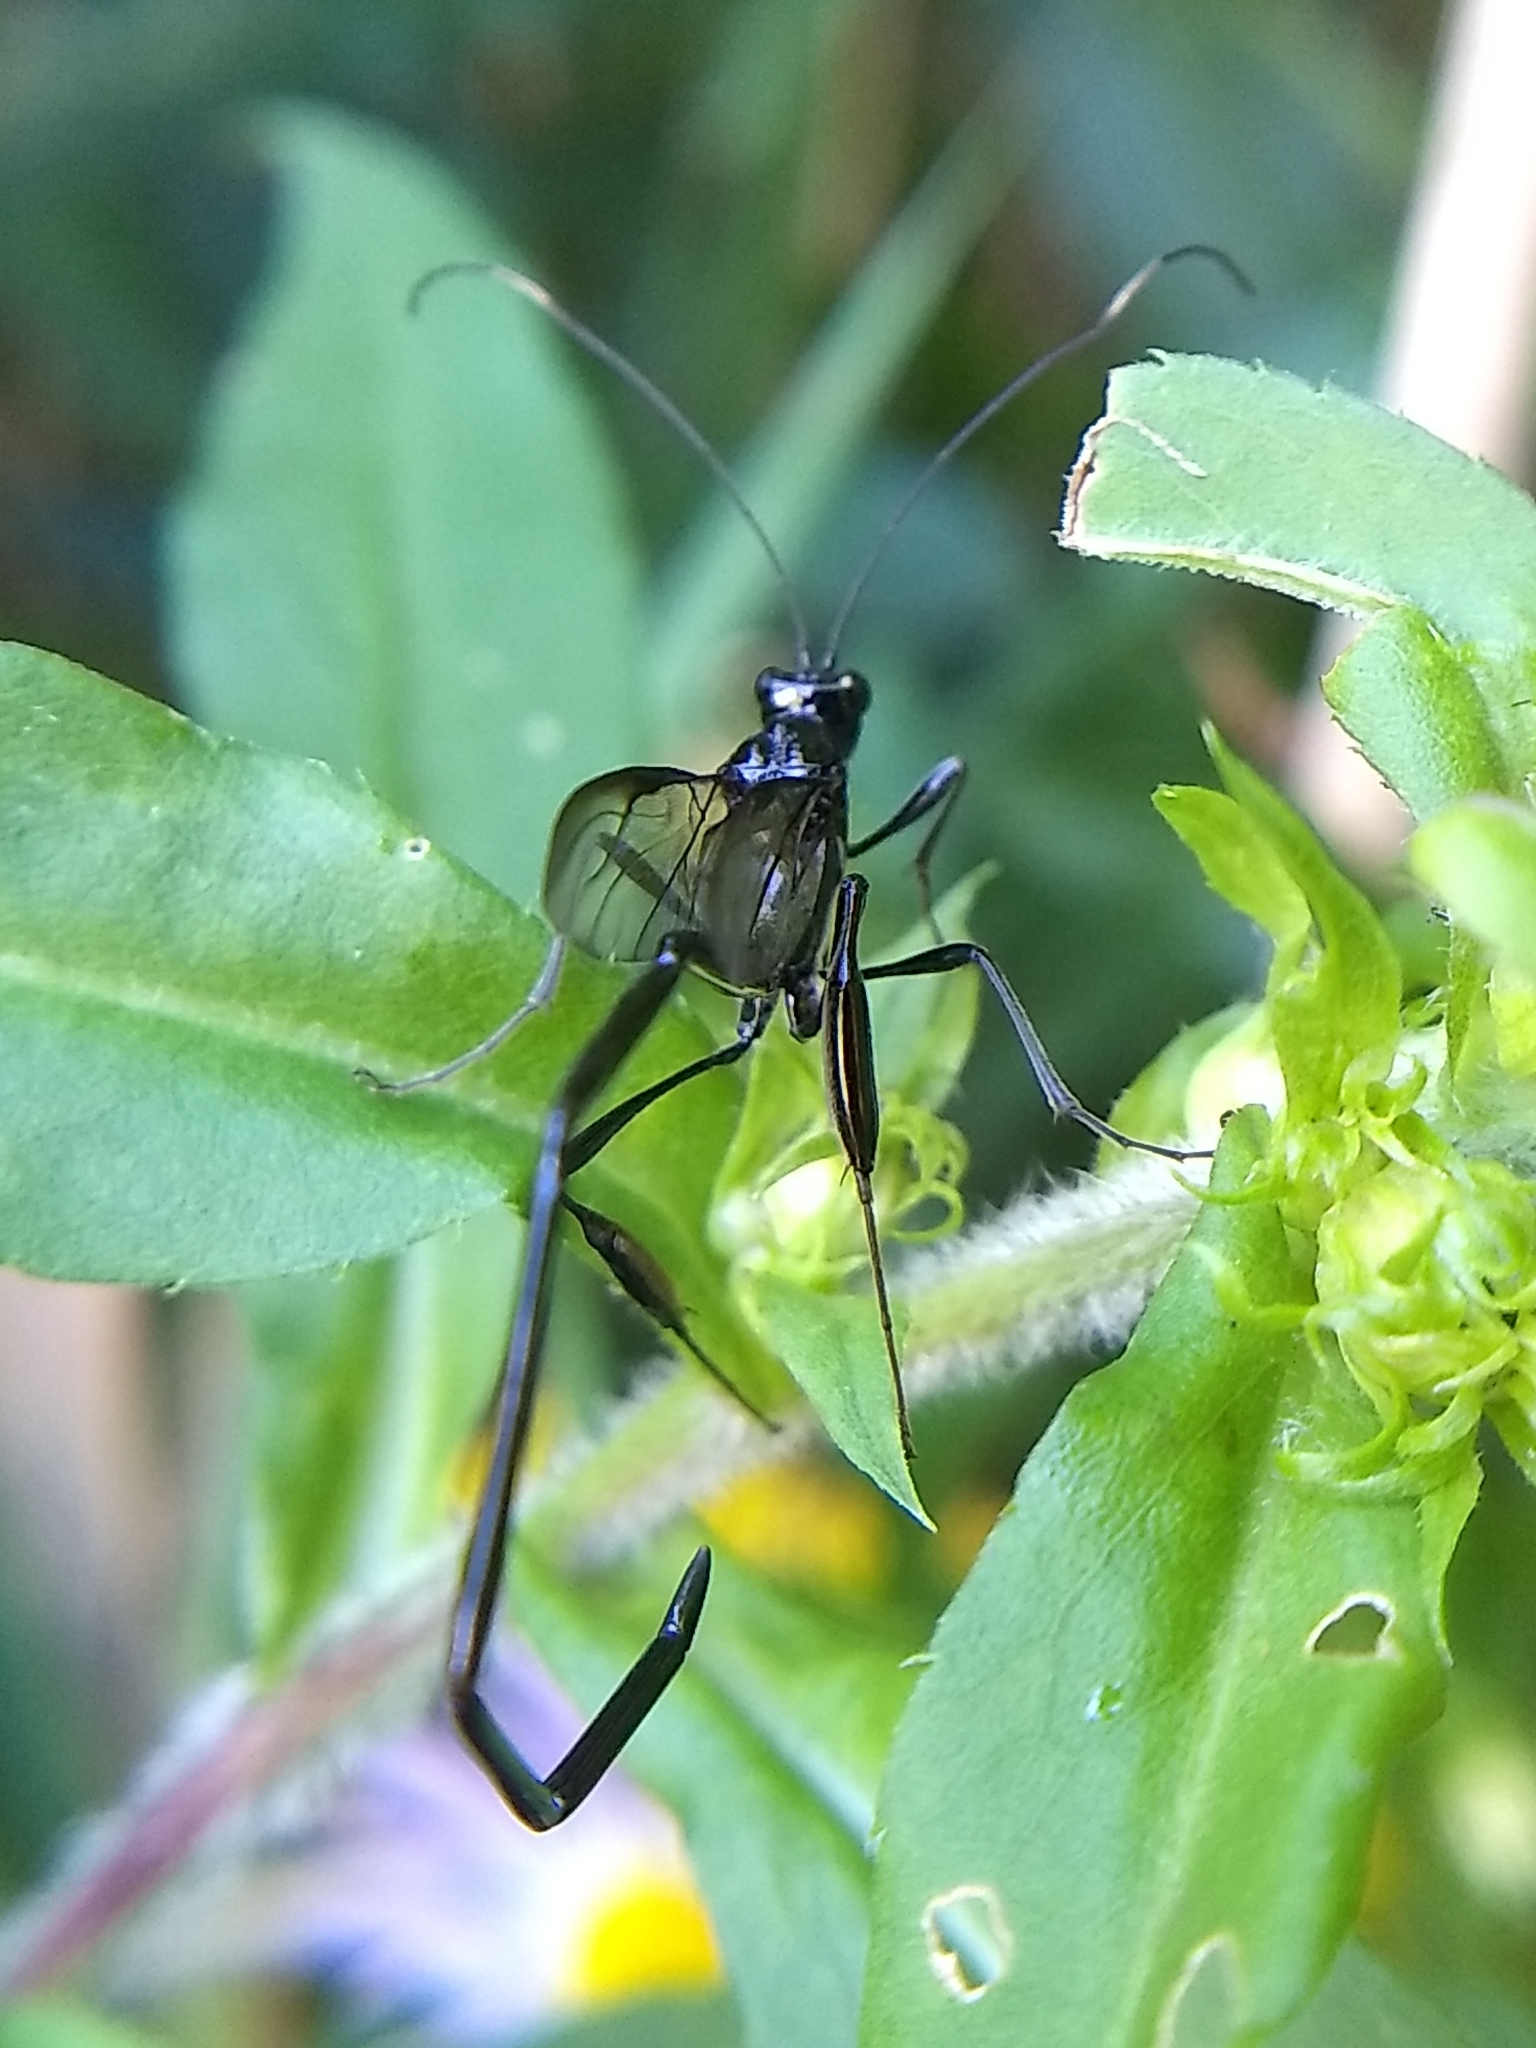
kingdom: Animalia
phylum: Arthropoda
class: Insecta
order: Hymenoptera
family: Pelecinidae
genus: Pelecinus
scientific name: Pelecinus polyturator
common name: American pelecinid wasp
